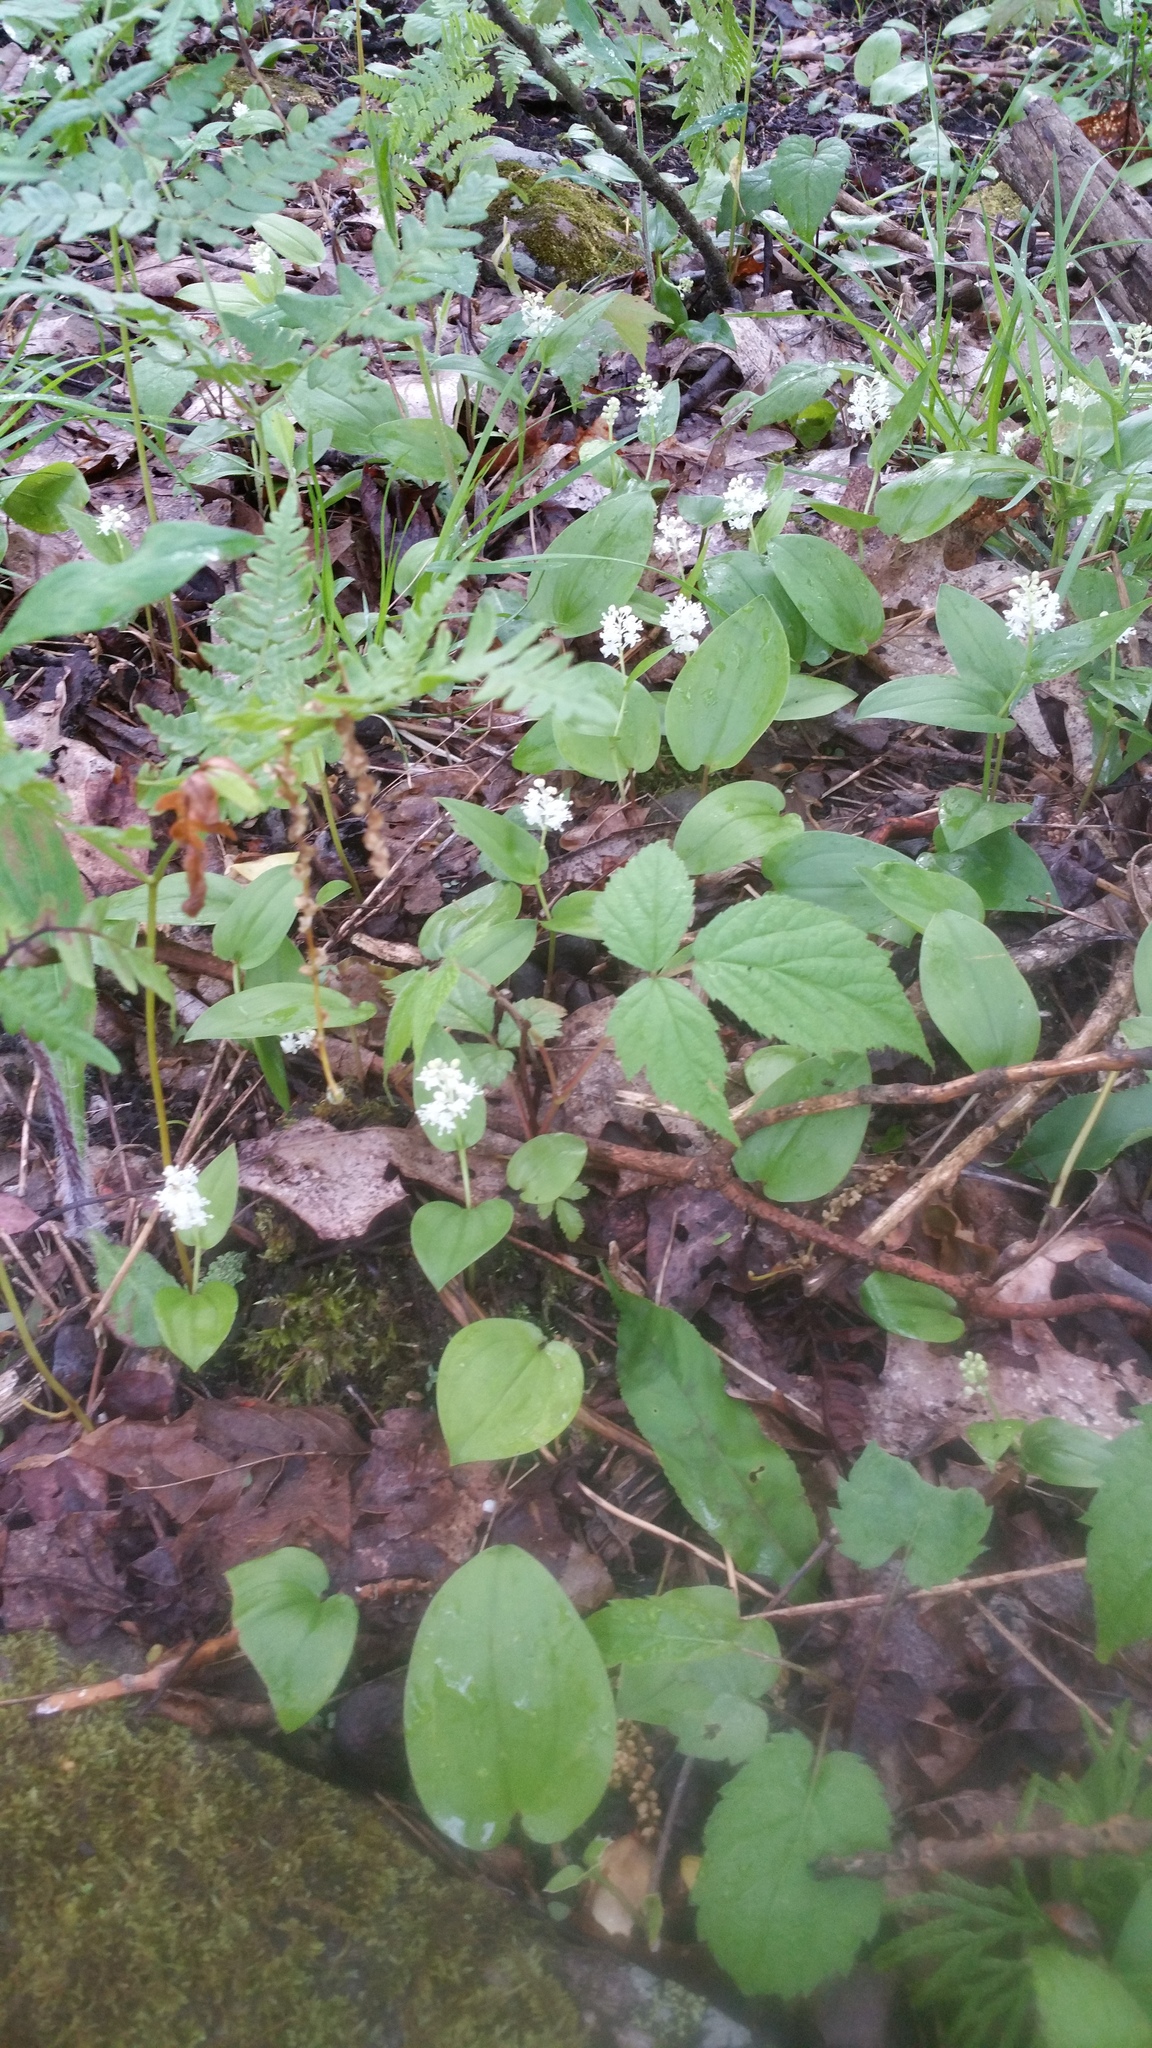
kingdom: Plantae
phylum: Tracheophyta
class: Liliopsida
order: Asparagales
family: Asparagaceae
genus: Maianthemum
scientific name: Maianthemum canadense
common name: False lily-of-the-valley
